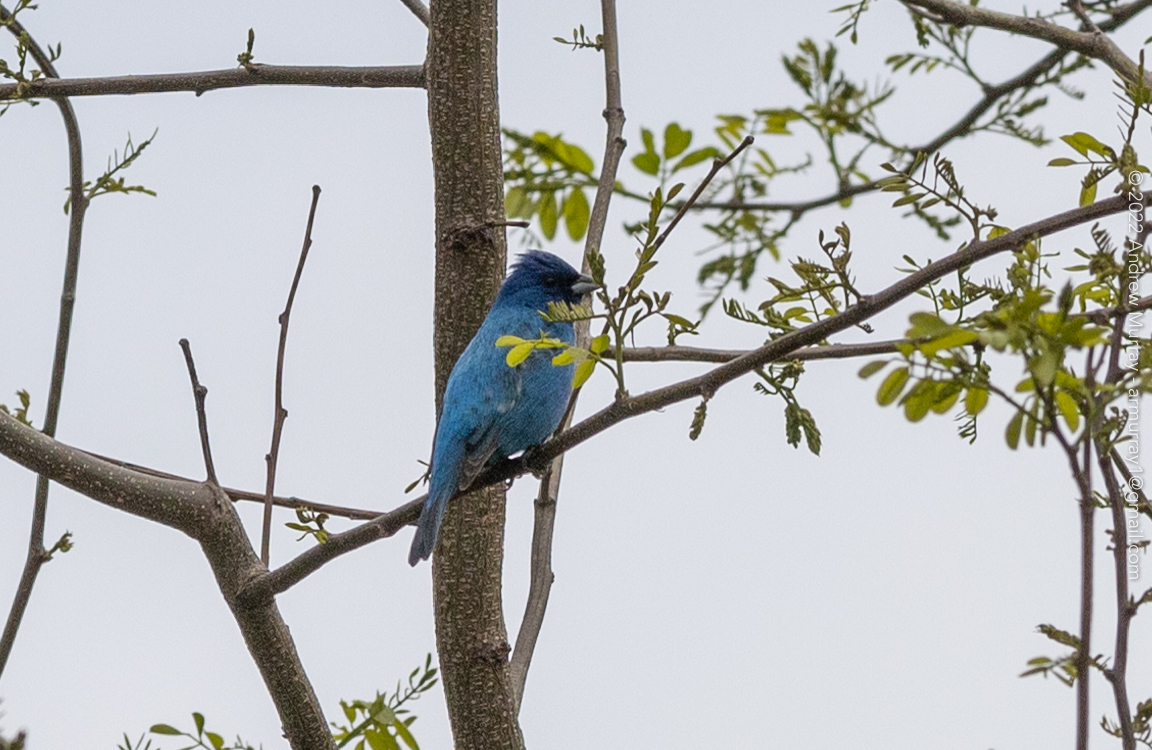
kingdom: Animalia
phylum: Chordata
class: Aves
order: Passeriformes
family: Cardinalidae
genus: Passerina
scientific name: Passerina cyanea
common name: Indigo bunting
